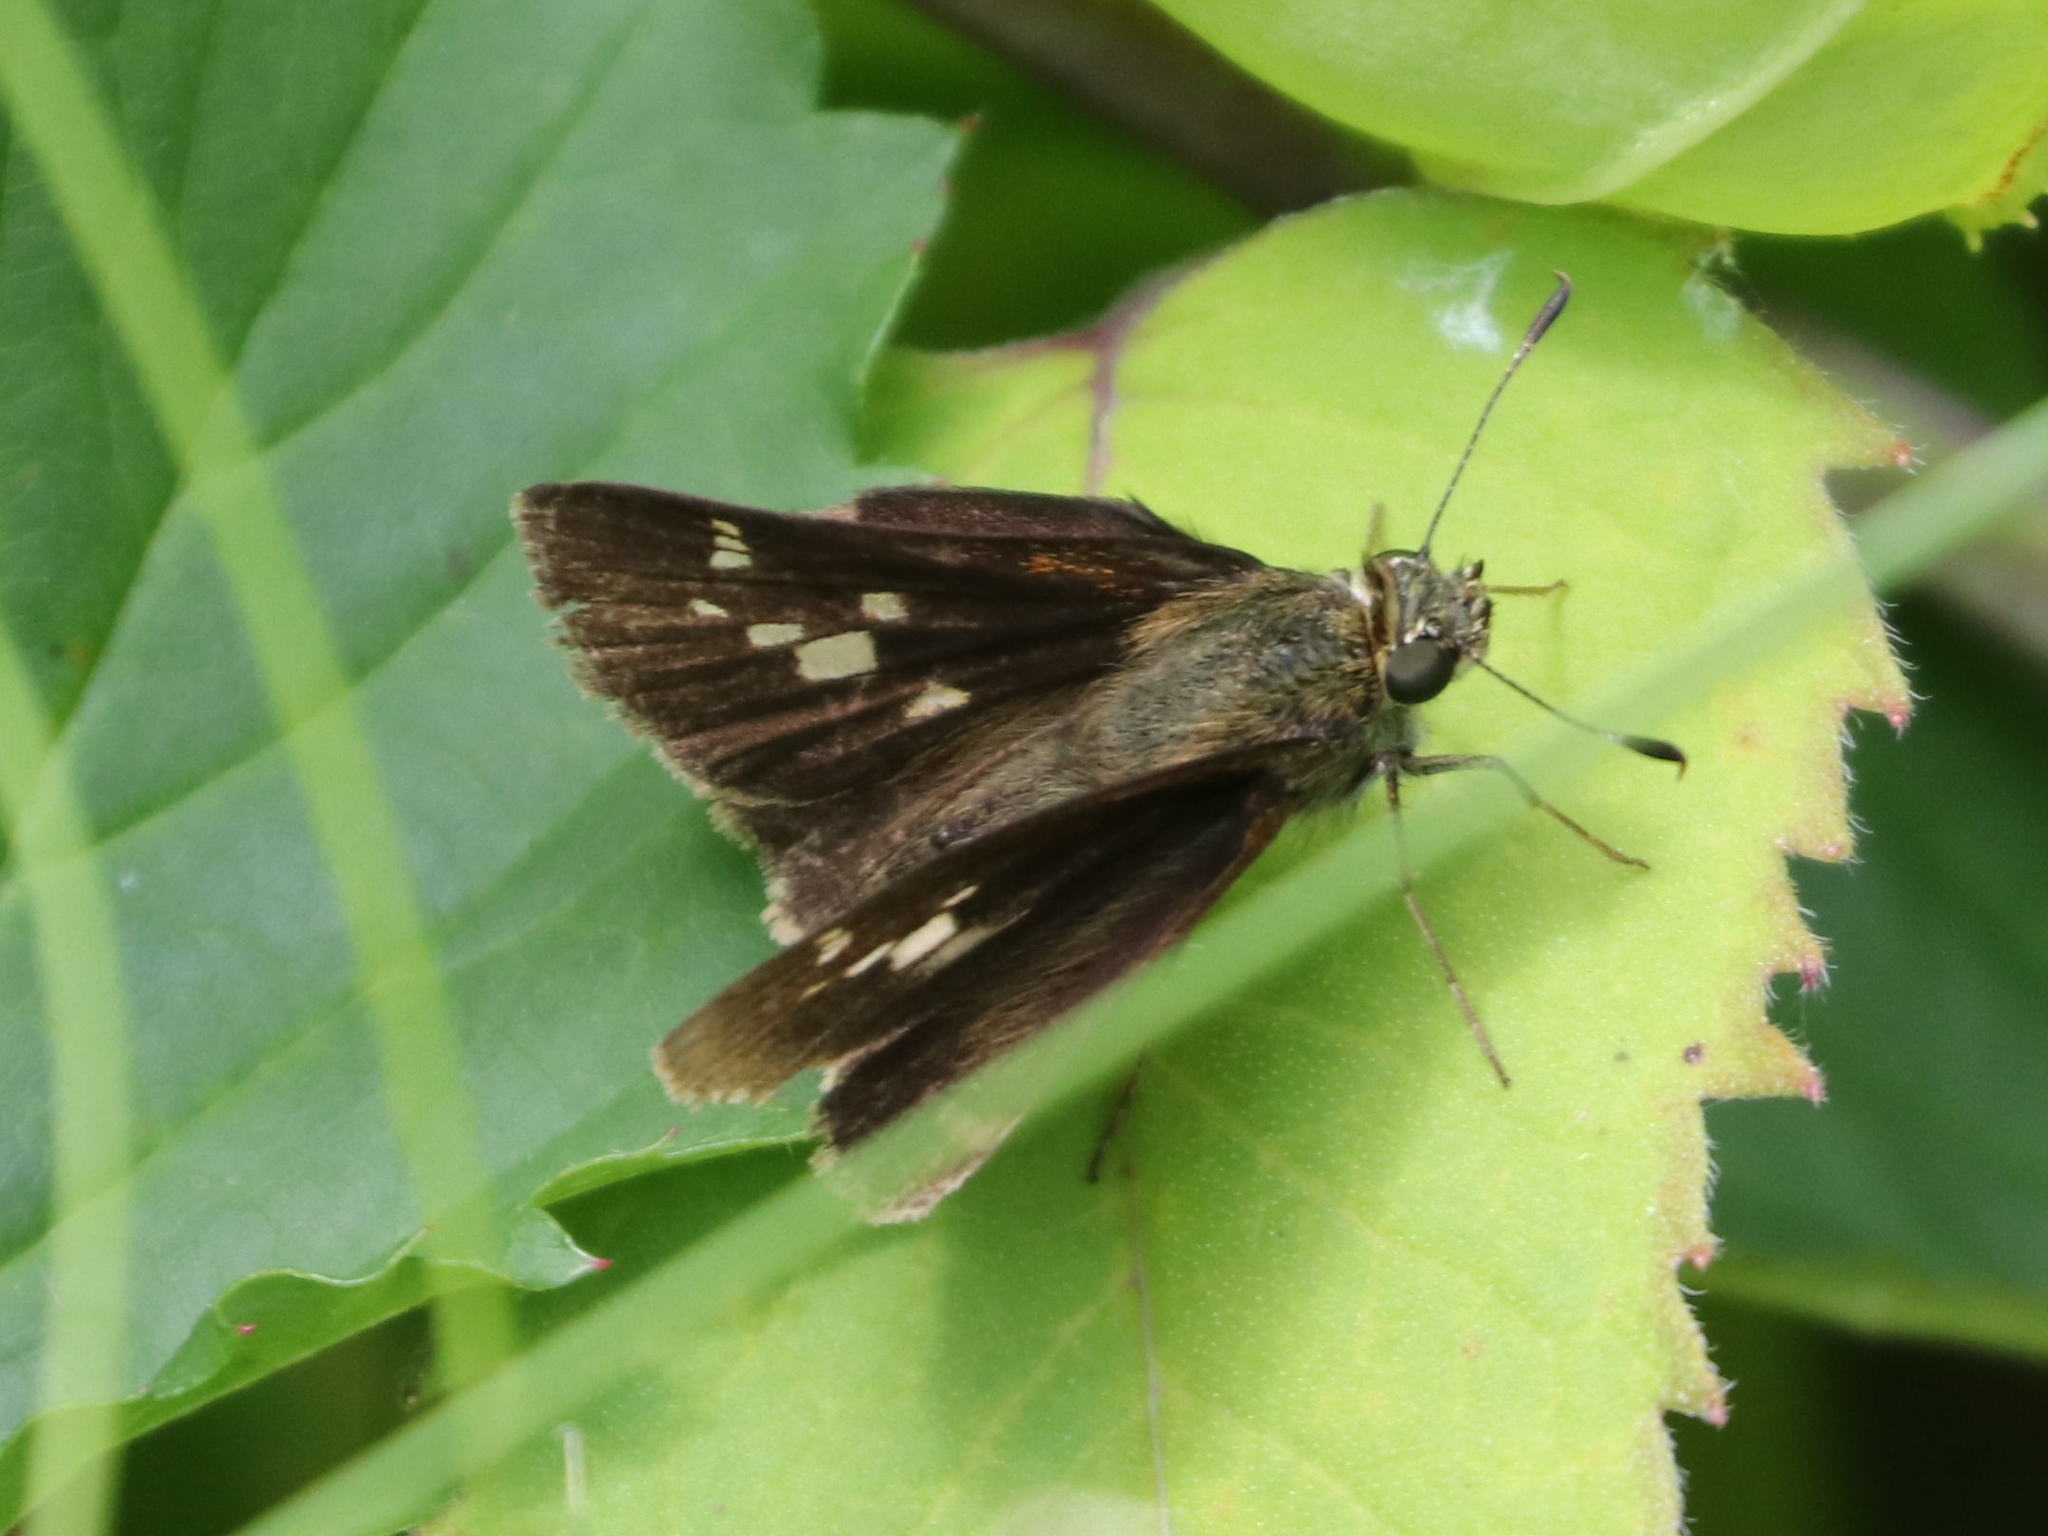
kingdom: Animalia
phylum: Arthropoda
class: Insecta
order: Lepidoptera
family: Hesperiidae
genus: Vernia
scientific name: Vernia verna
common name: Little glassywing
